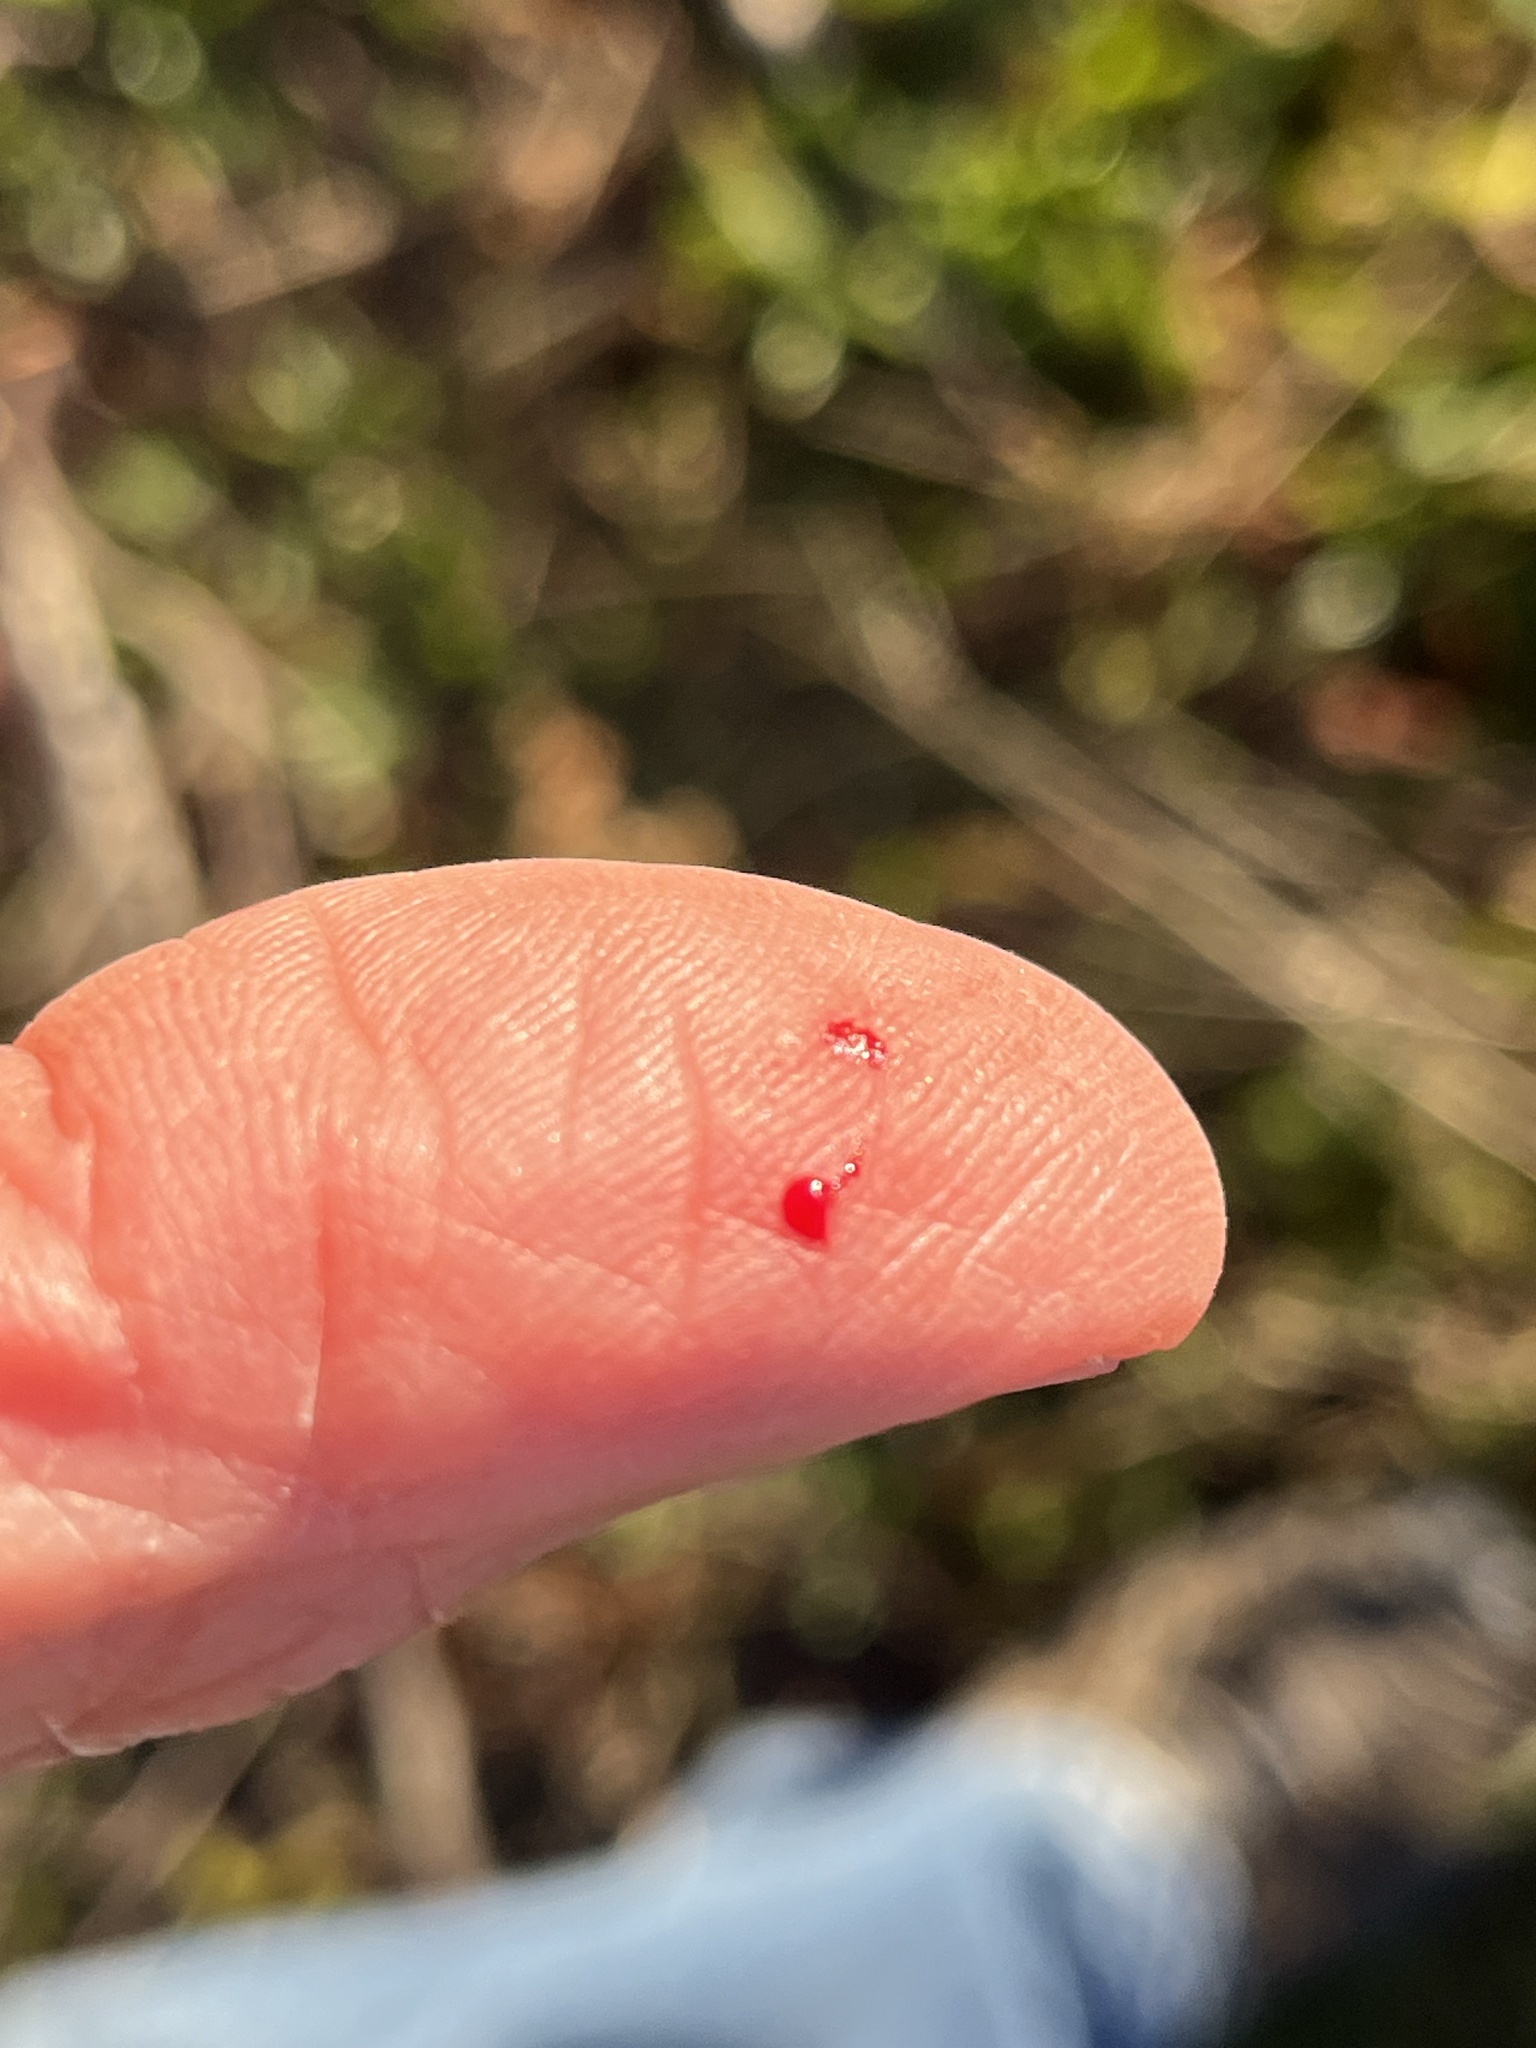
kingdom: Plantae
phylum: Tracheophyta
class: Magnoliopsida
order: Sapindales
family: Rutaceae
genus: Zanthoxylum
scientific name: Zanthoxylum clava-herculis
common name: Hercules'-club
